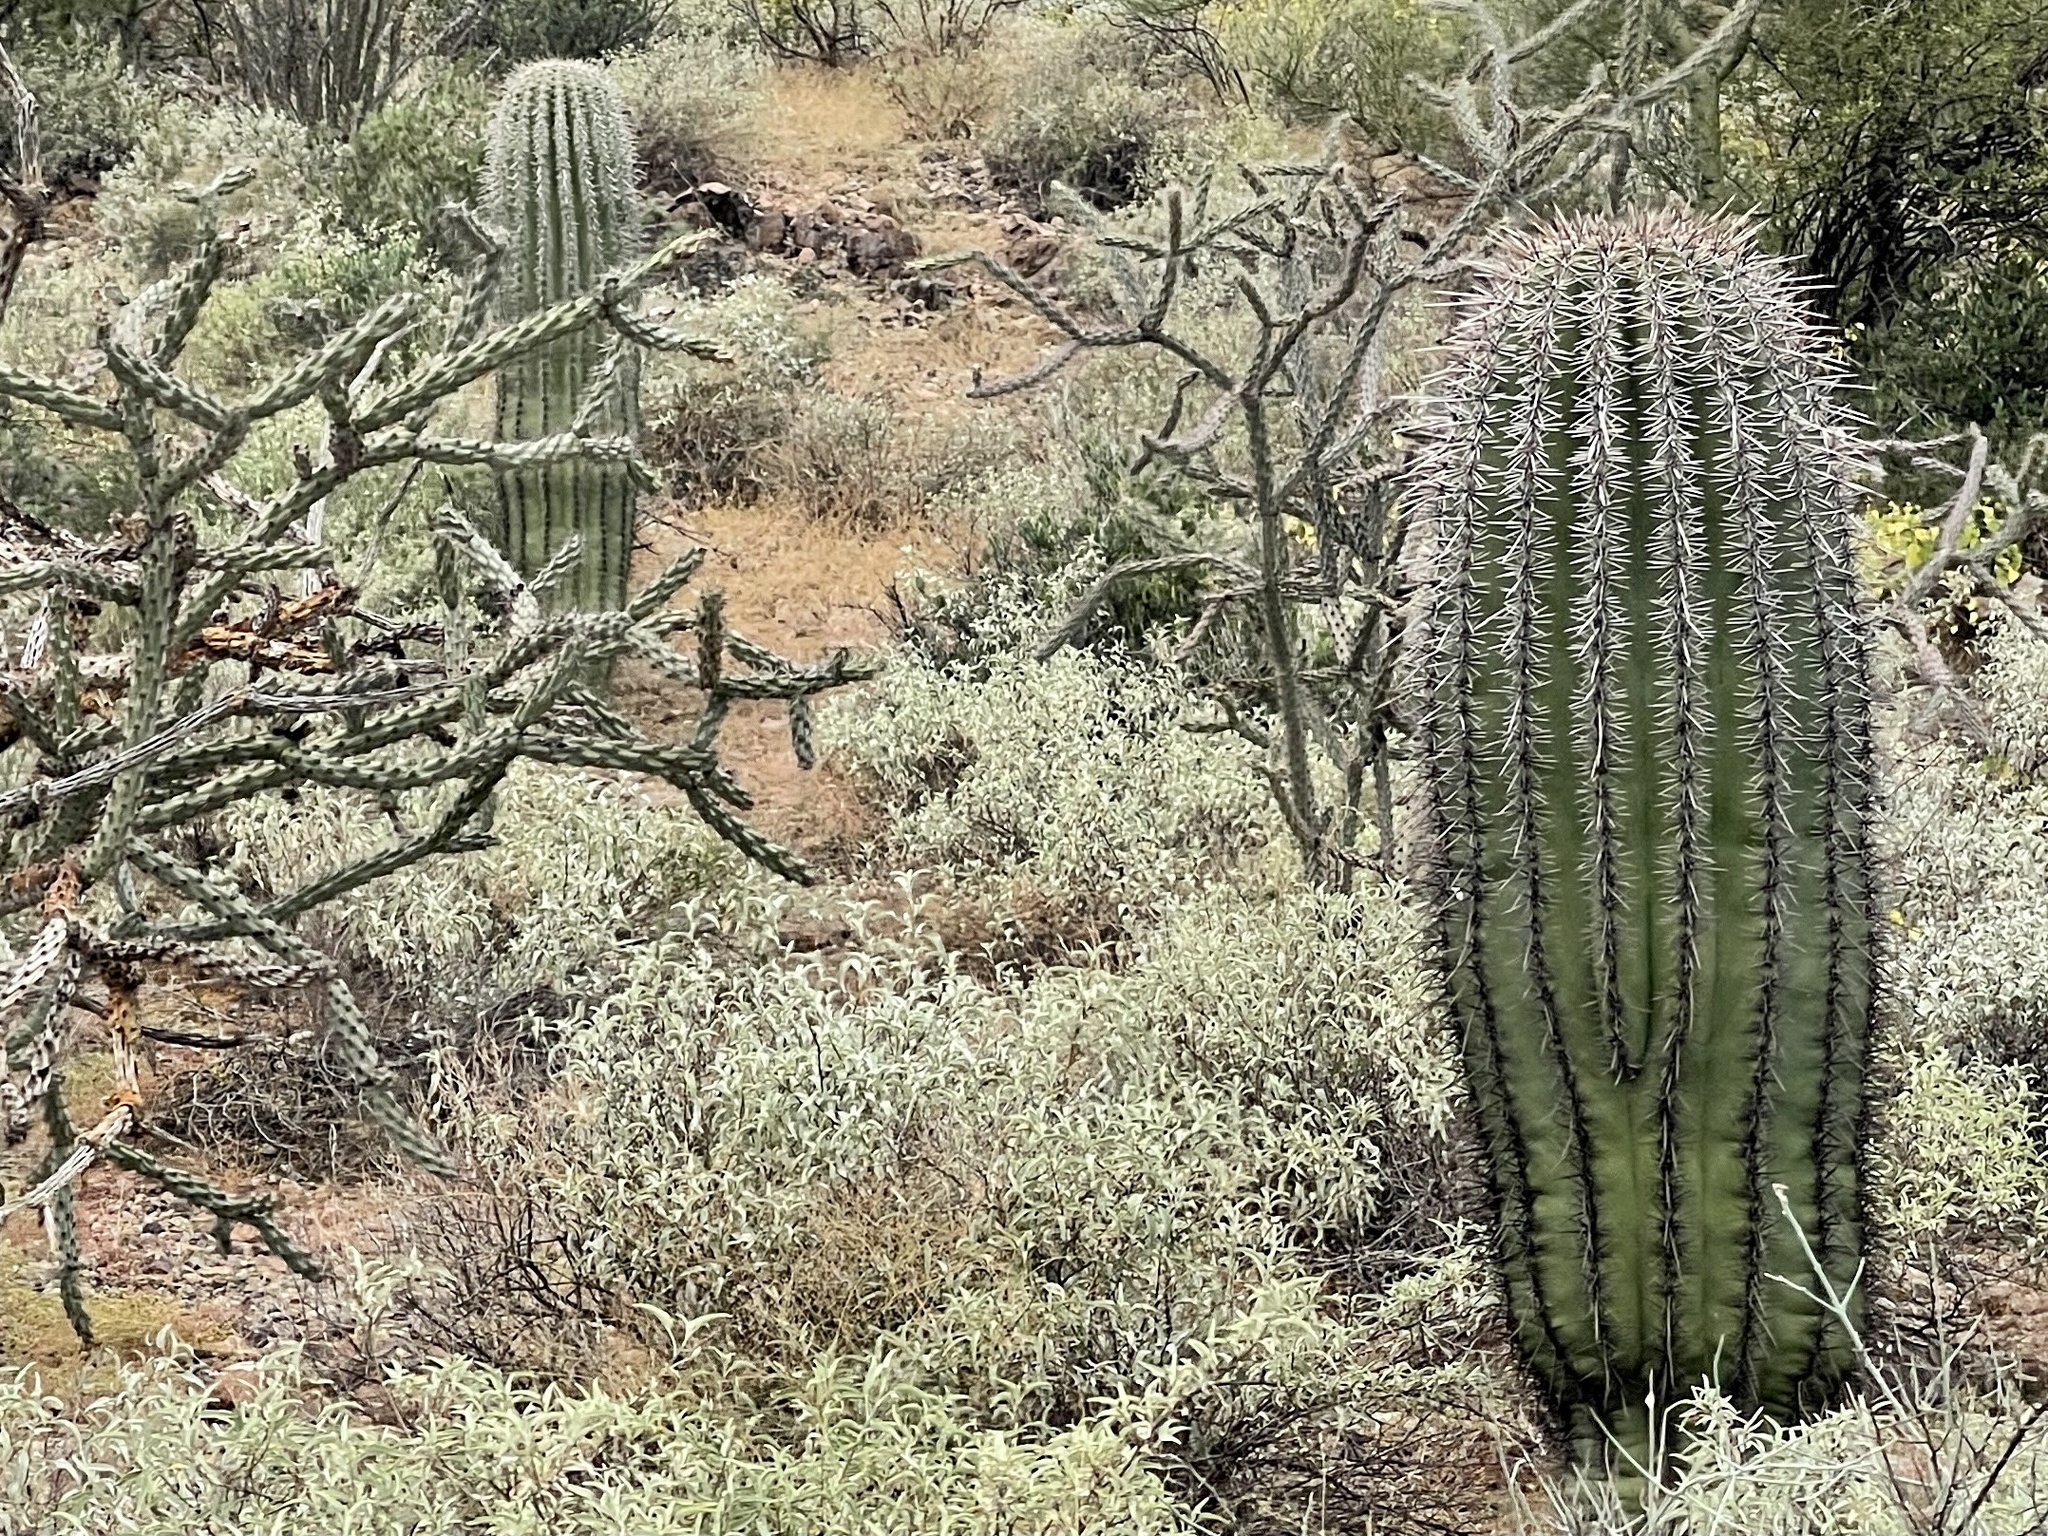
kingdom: Plantae
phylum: Tracheophyta
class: Magnoliopsida
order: Caryophyllales
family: Cactaceae
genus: Carnegiea
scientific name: Carnegiea gigantea
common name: Saguaro
